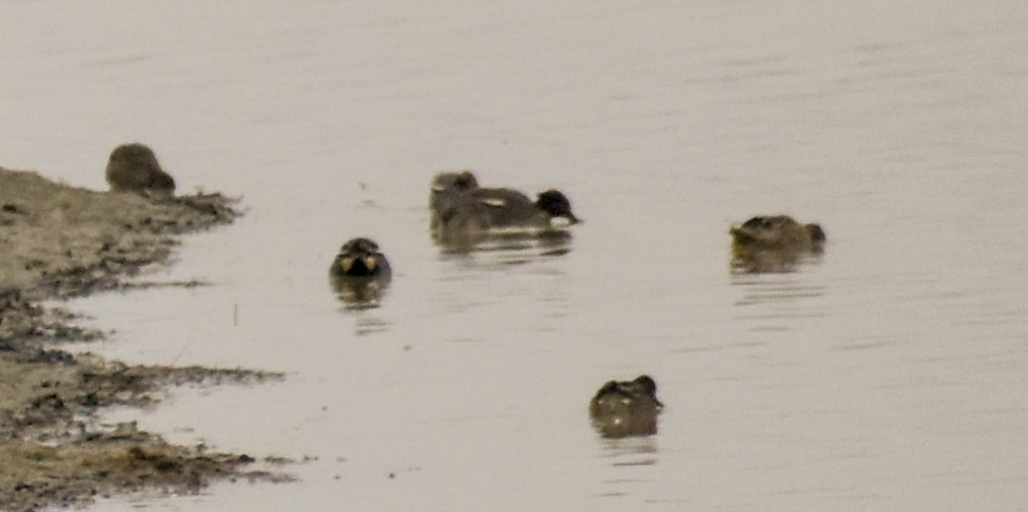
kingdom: Animalia
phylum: Chordata
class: Aves
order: Anseriformes
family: Anatidae
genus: Anas
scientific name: Anas crecca
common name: Eurasian teal
